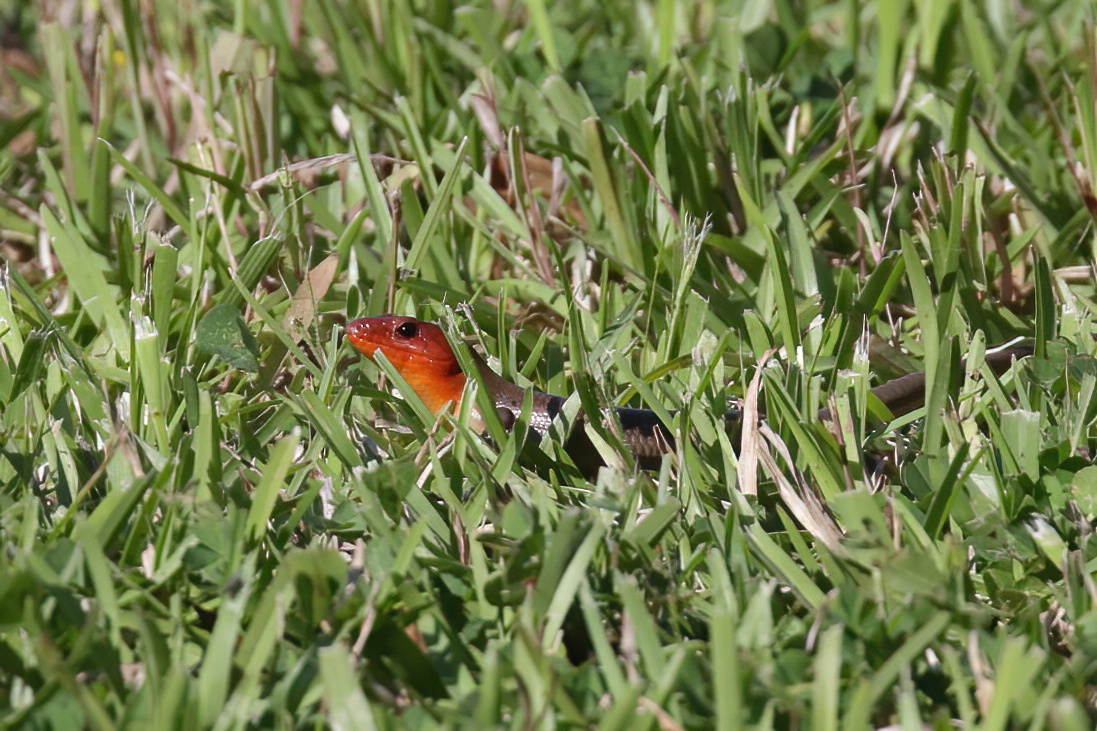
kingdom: Animalia
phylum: Chordata
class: Squamata
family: Scincidae
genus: Plestiodon
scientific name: Plestiodon laticeps
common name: Broadhead skink
